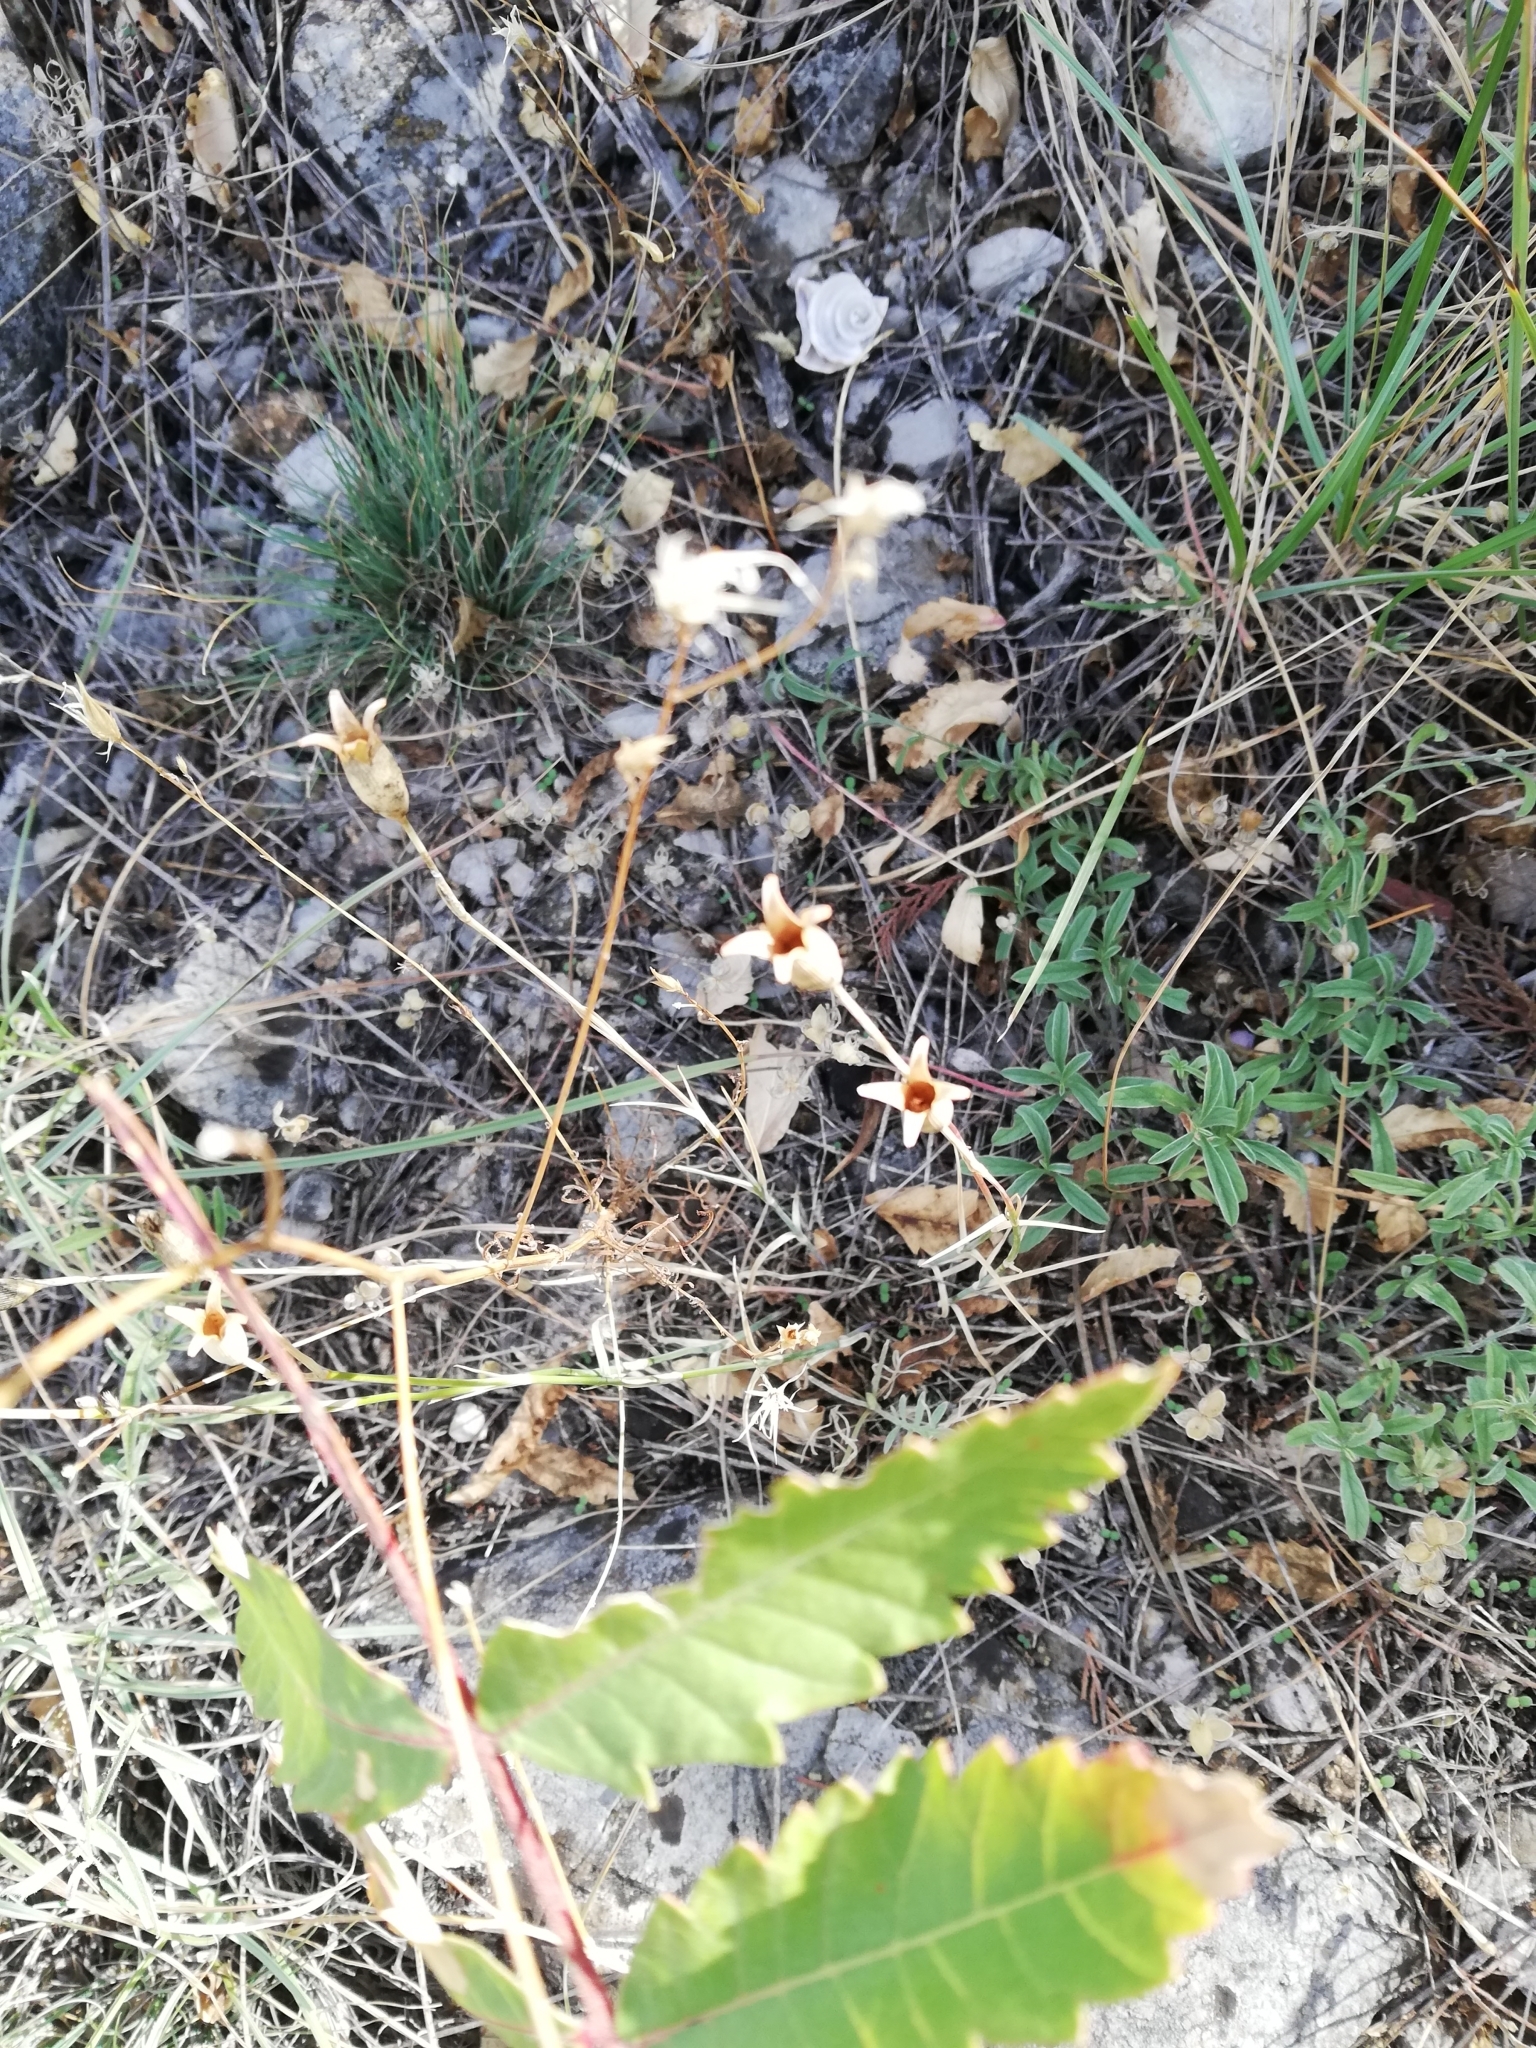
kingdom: Plantae
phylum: Tracheophyta
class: Magnoliopsida
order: Caryophyllales
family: Caryophyllaceae
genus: Dianthus
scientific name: Dianthus marschallii
